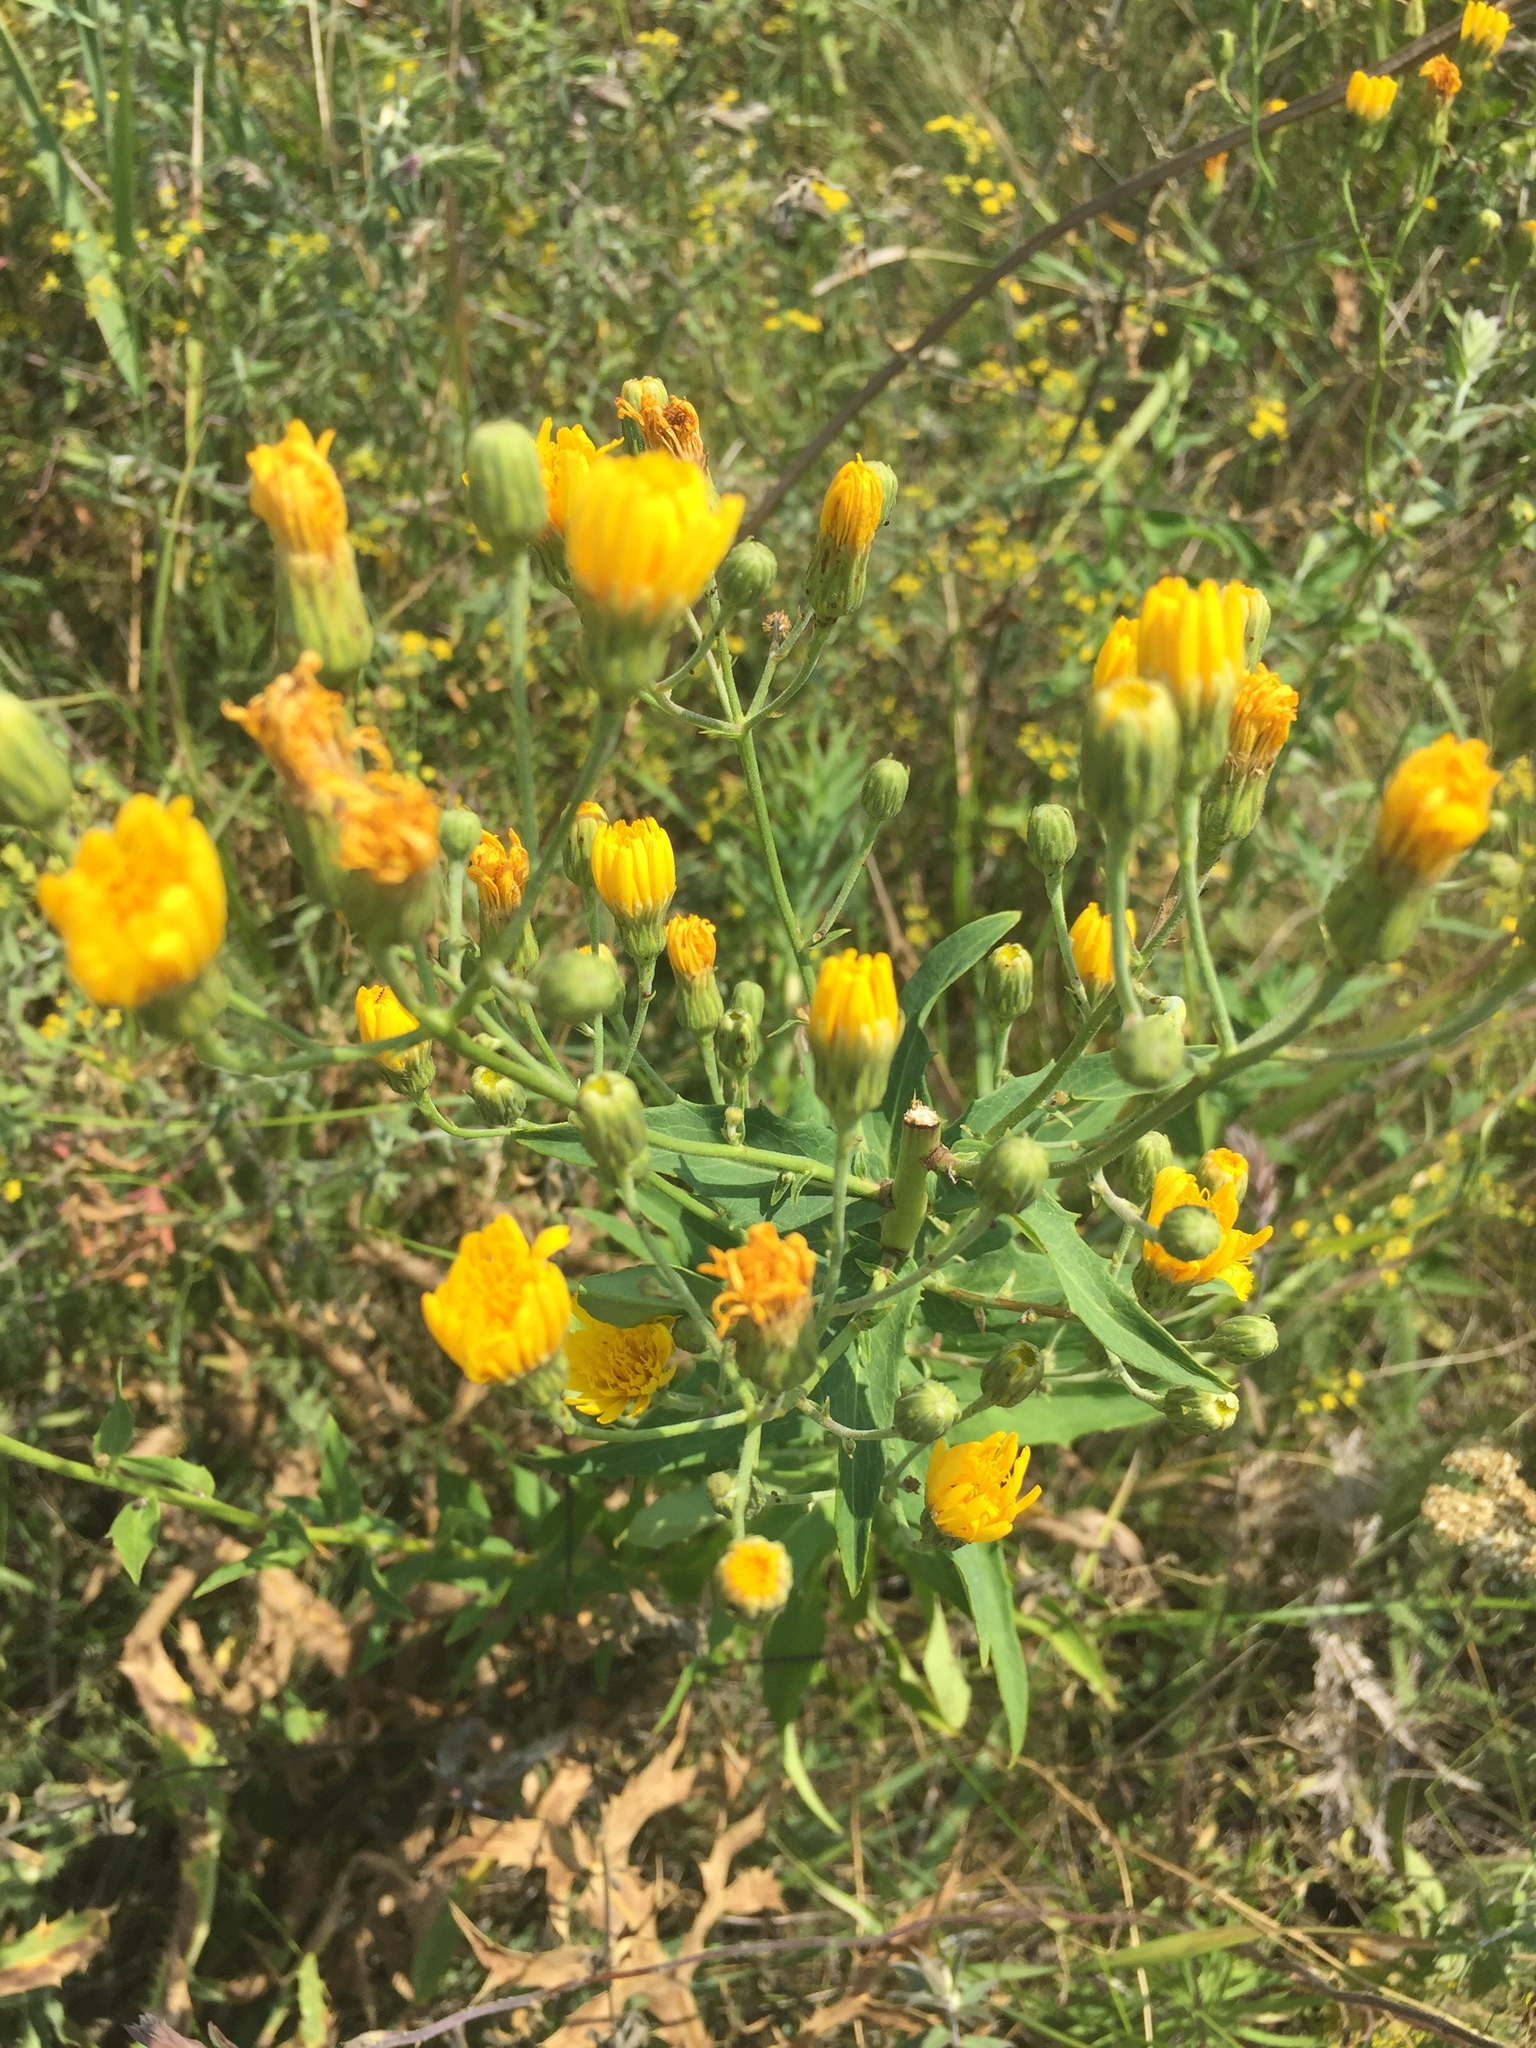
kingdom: Plantae
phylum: Tracheophyta
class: Magnoliopsida
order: Asterales
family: Asteraceae
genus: Hieracium
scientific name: Hieracium virosum
